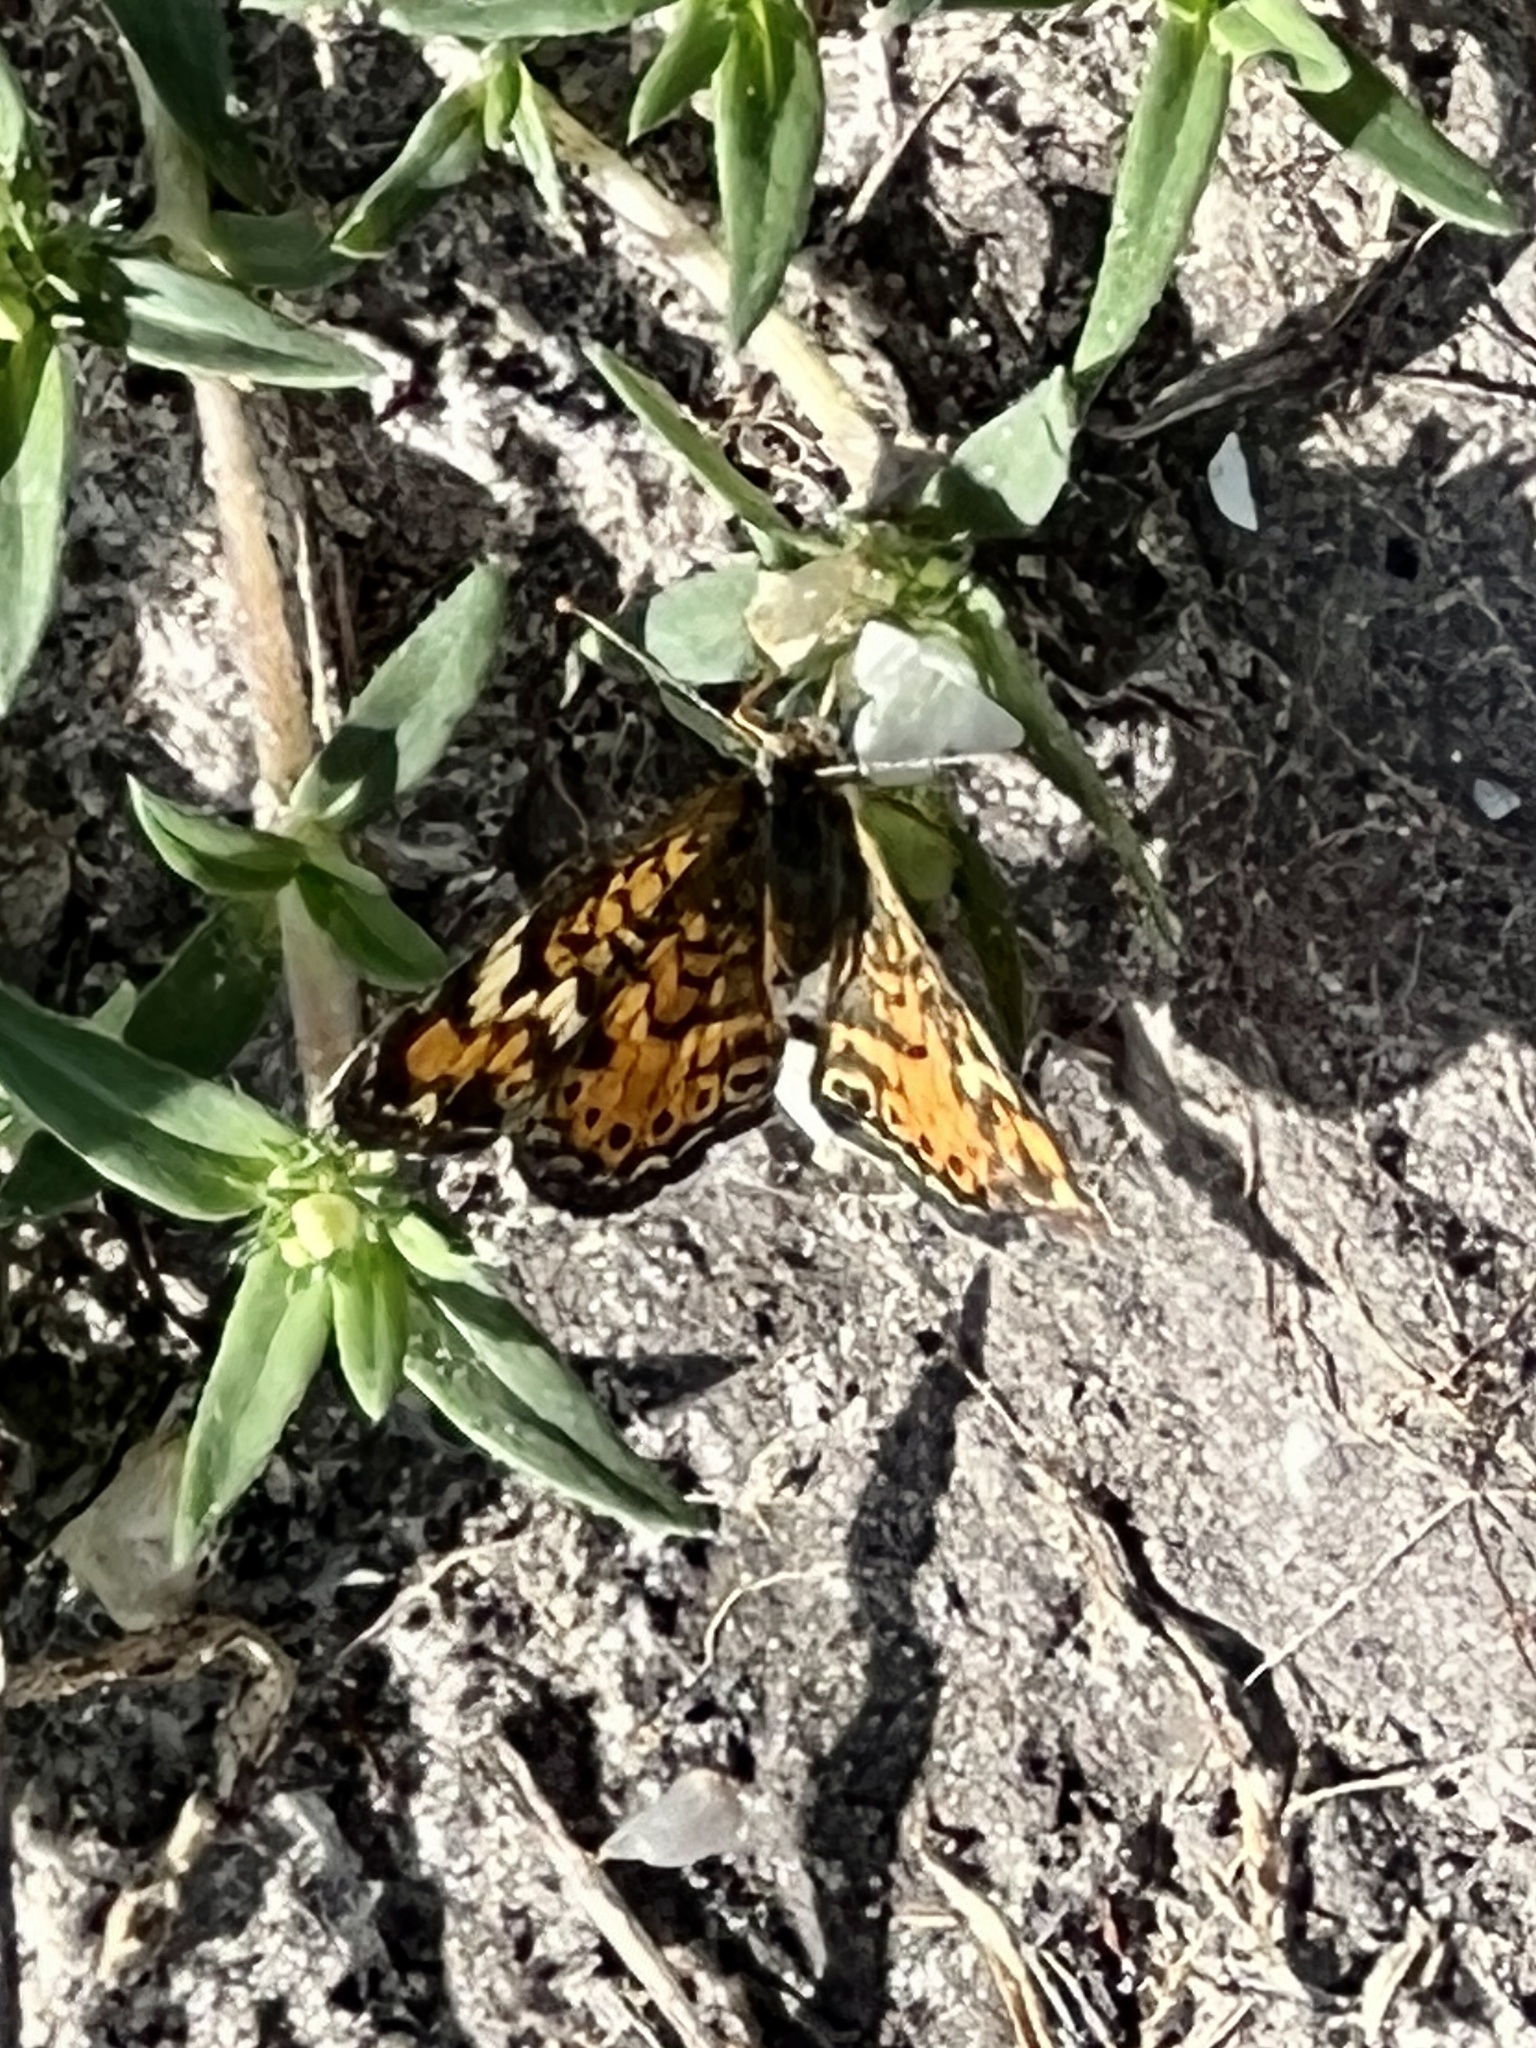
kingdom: Animalia
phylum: Arthropoda
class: Insecta
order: Lepidoptera
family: Nymphalidae
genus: Phyciodes
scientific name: Phyciodes phaon
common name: Phaon crescent
